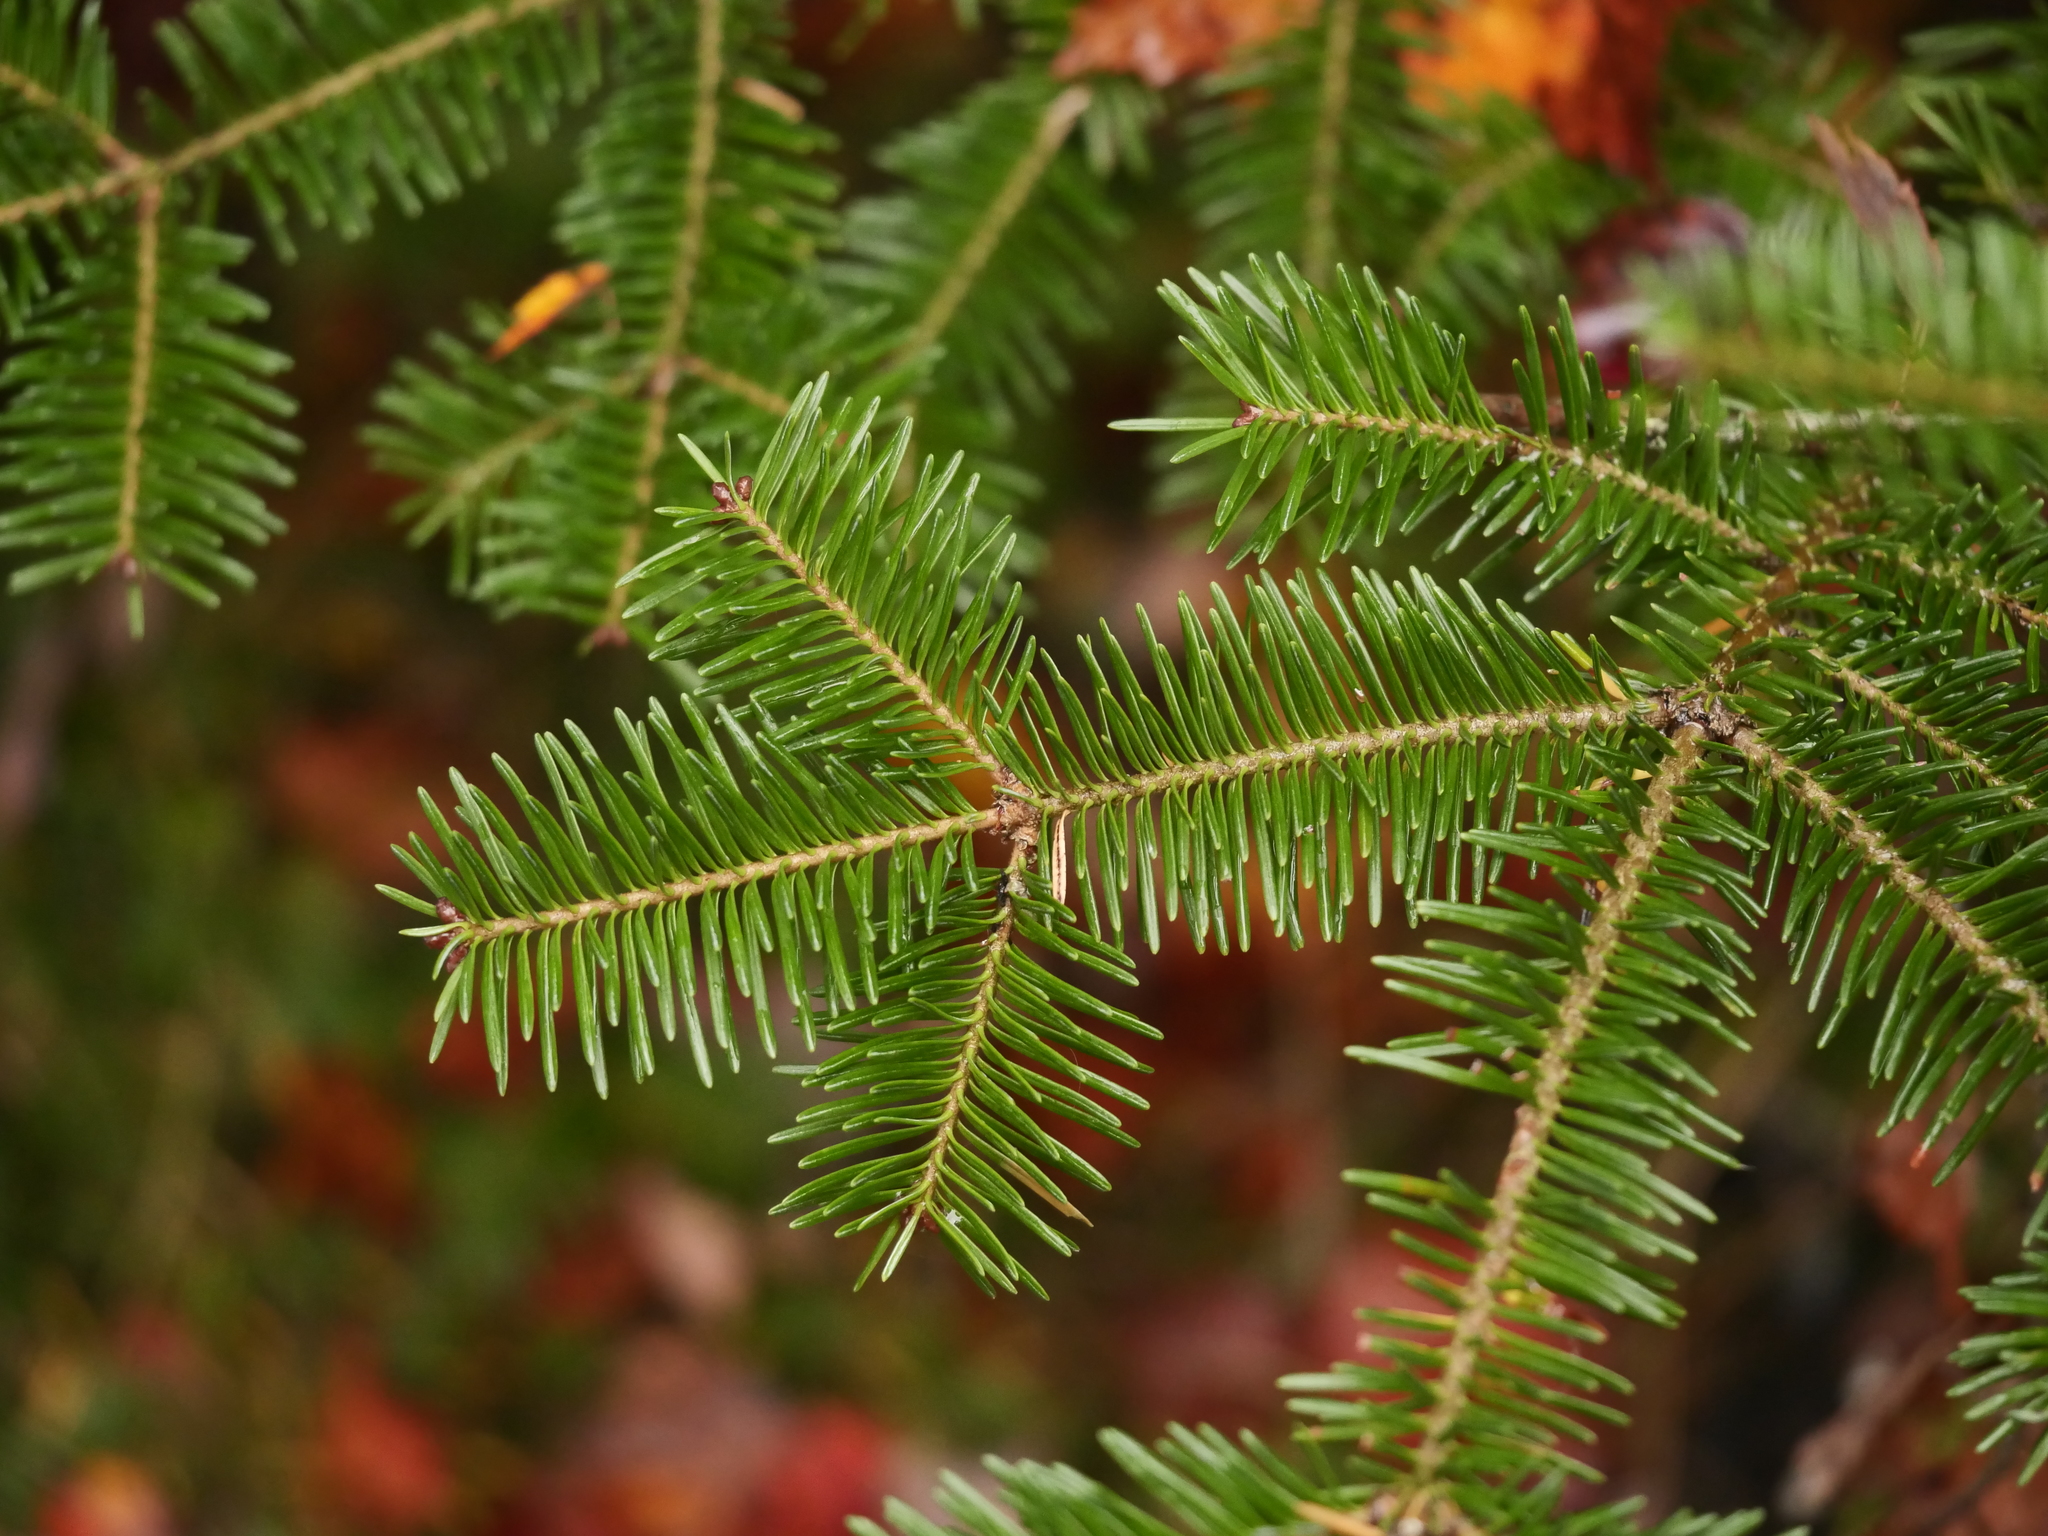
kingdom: Plantae
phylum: Tracheophyta
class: Pinopsida
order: Pinales
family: Pinaceae
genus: Abies
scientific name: Abies balsamea
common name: Balsam fir
